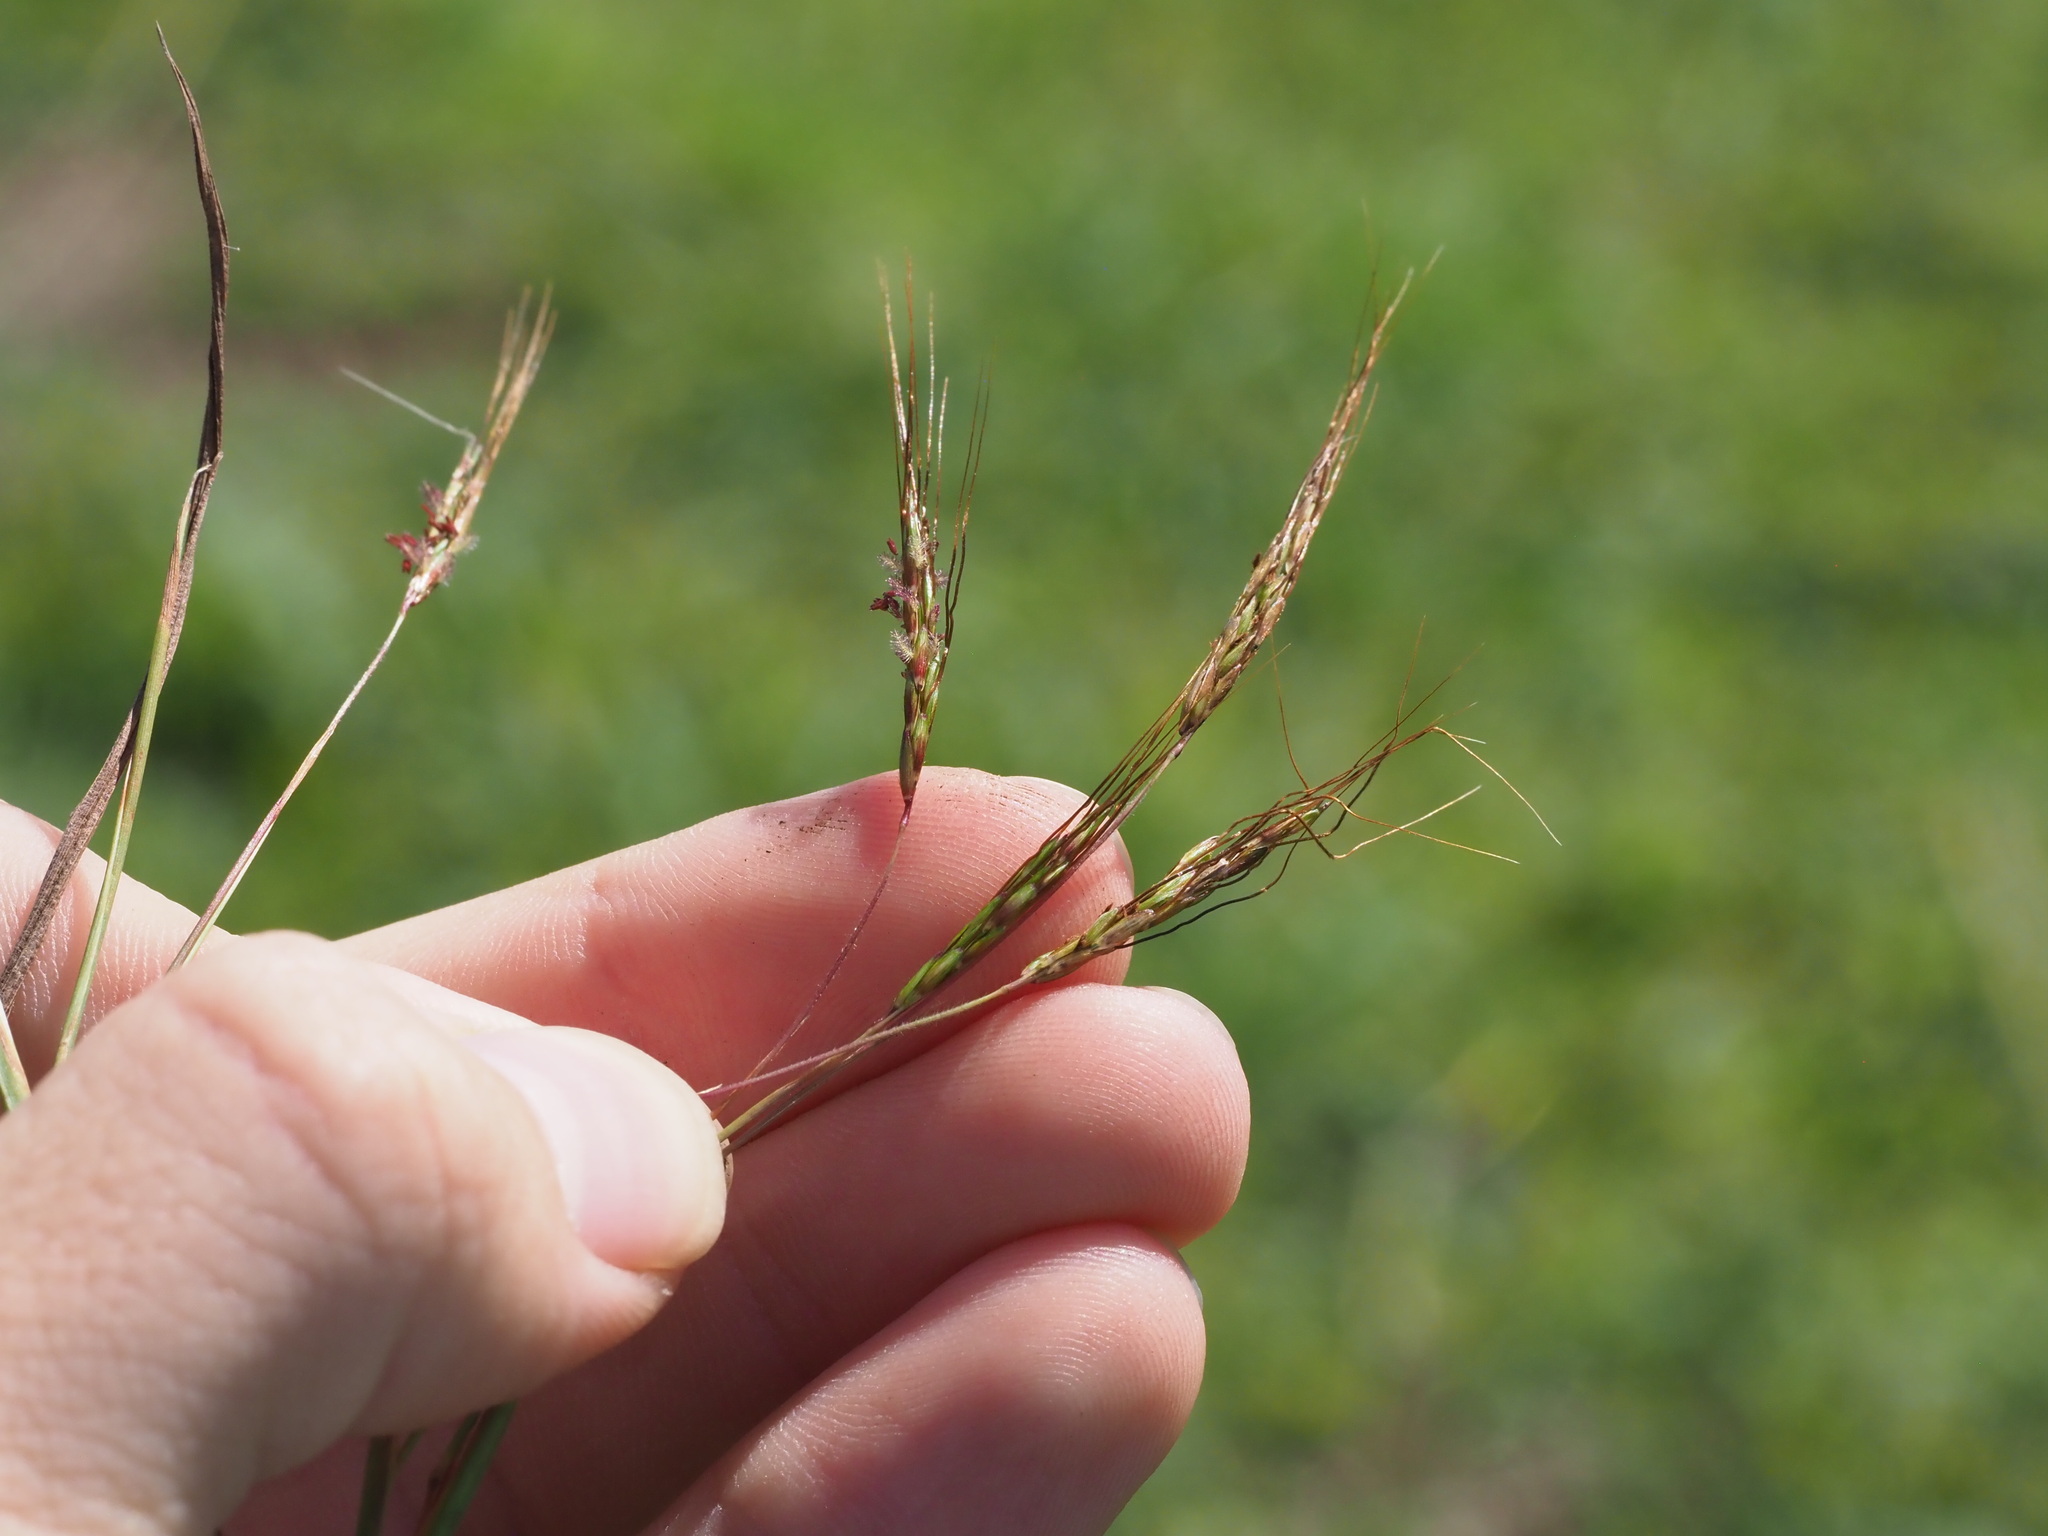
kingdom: Plantae
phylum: Tracheophyta
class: Liliopsida
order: Poales
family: Poaceae
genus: Hyparrhenia
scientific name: Hyparrhenia rufa
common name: Jaraguagrass
